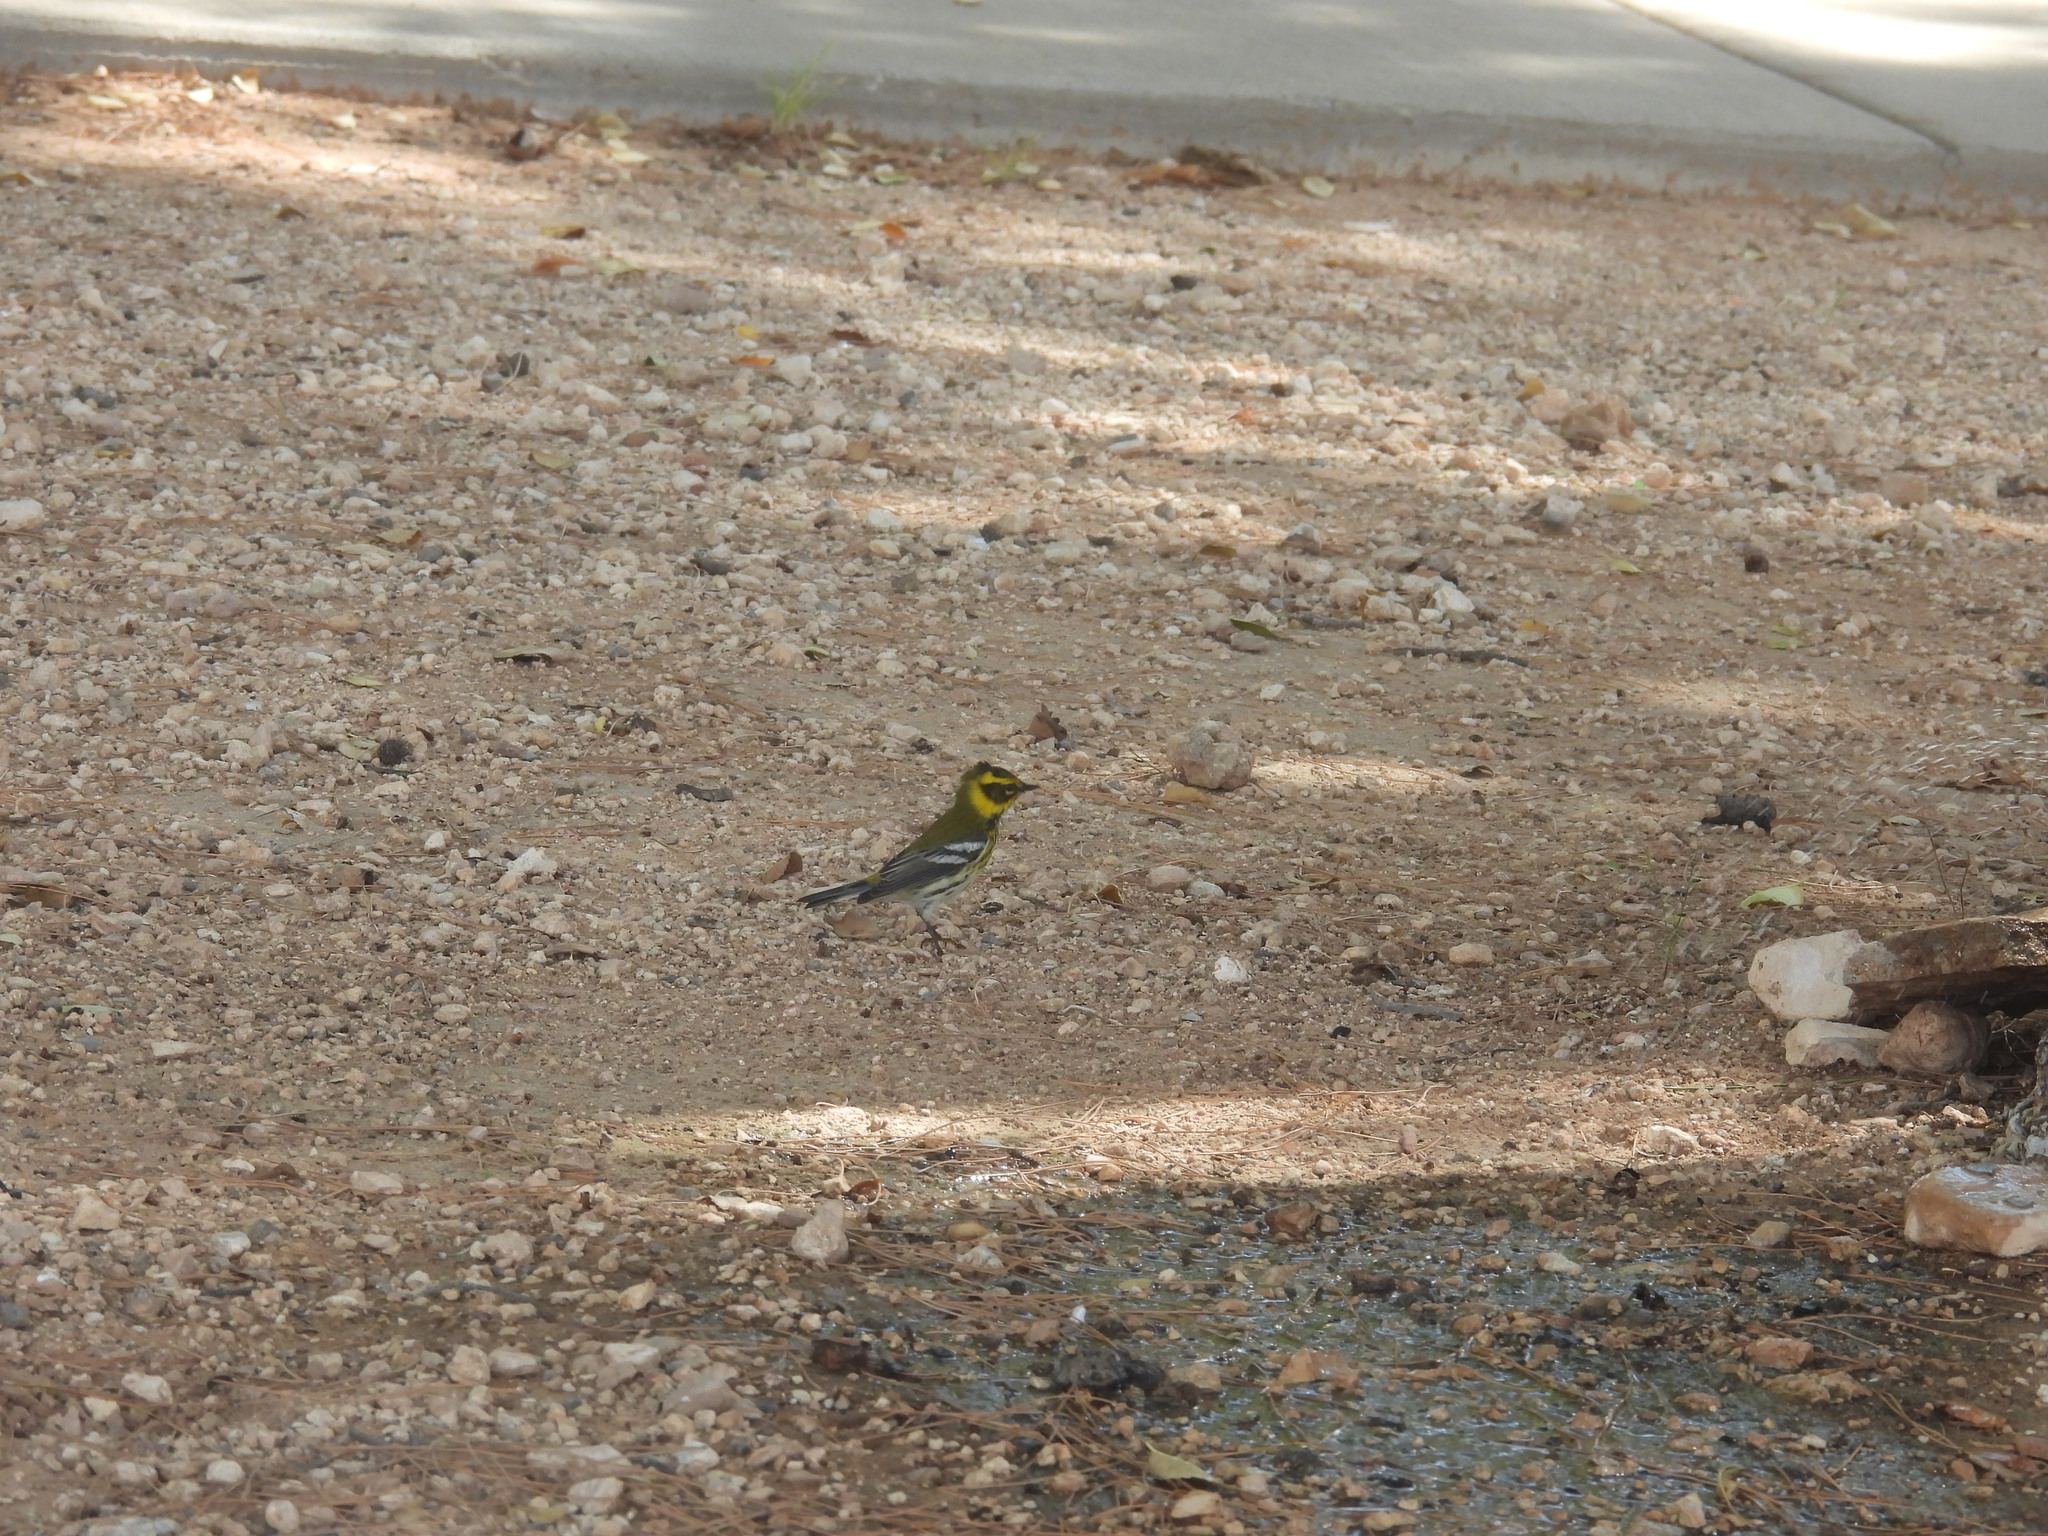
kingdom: Animalia
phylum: Chordata
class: Aves
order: Passeriformes
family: Parulidae
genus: Setophaga
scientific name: Setophaga townsendi
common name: Townsend's warbler
